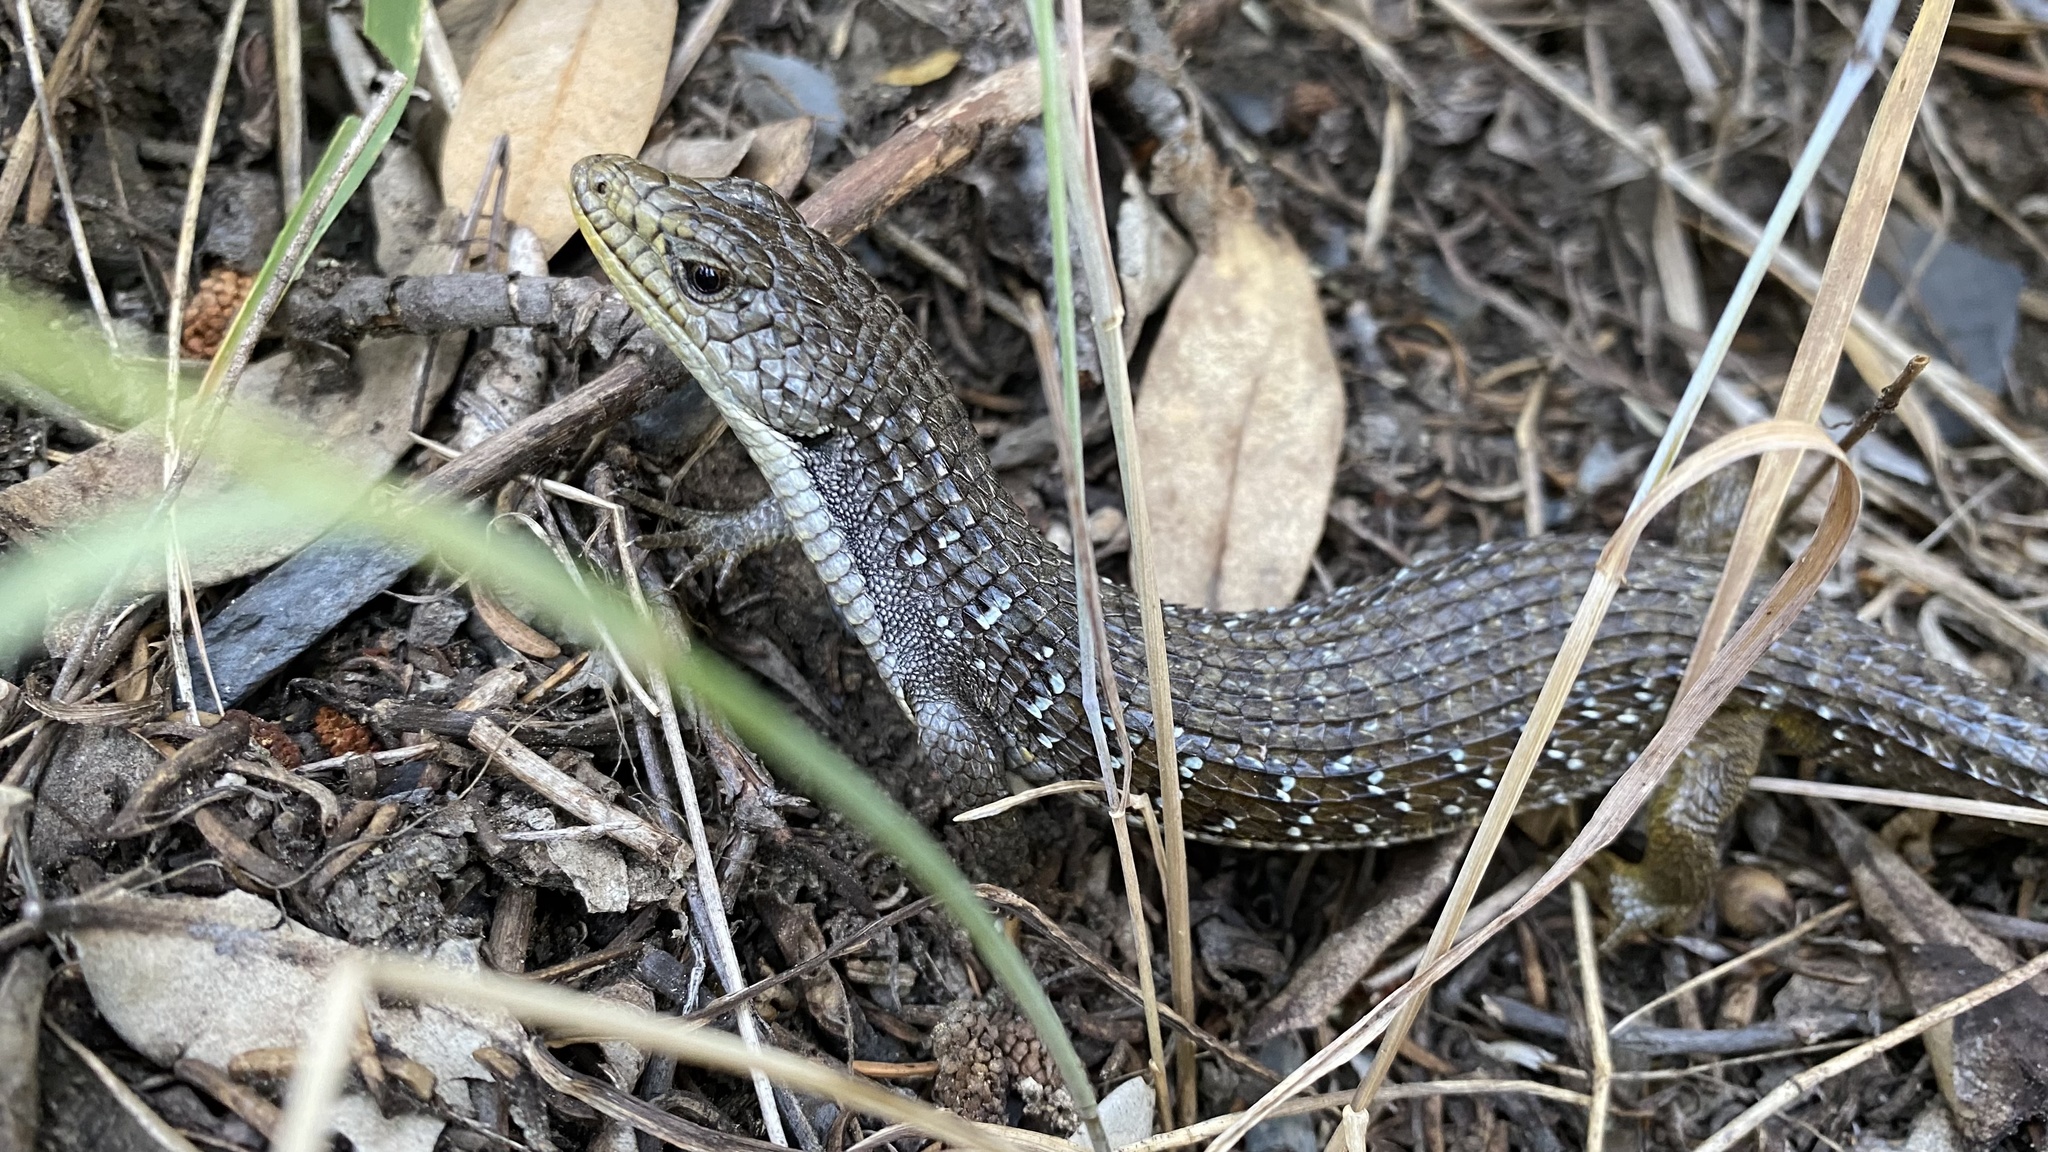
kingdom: Animalia
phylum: Chordata
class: Squamata
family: Anguidae
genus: Elgaria
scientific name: Elgaria coerulea
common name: Northern alligator lizard
